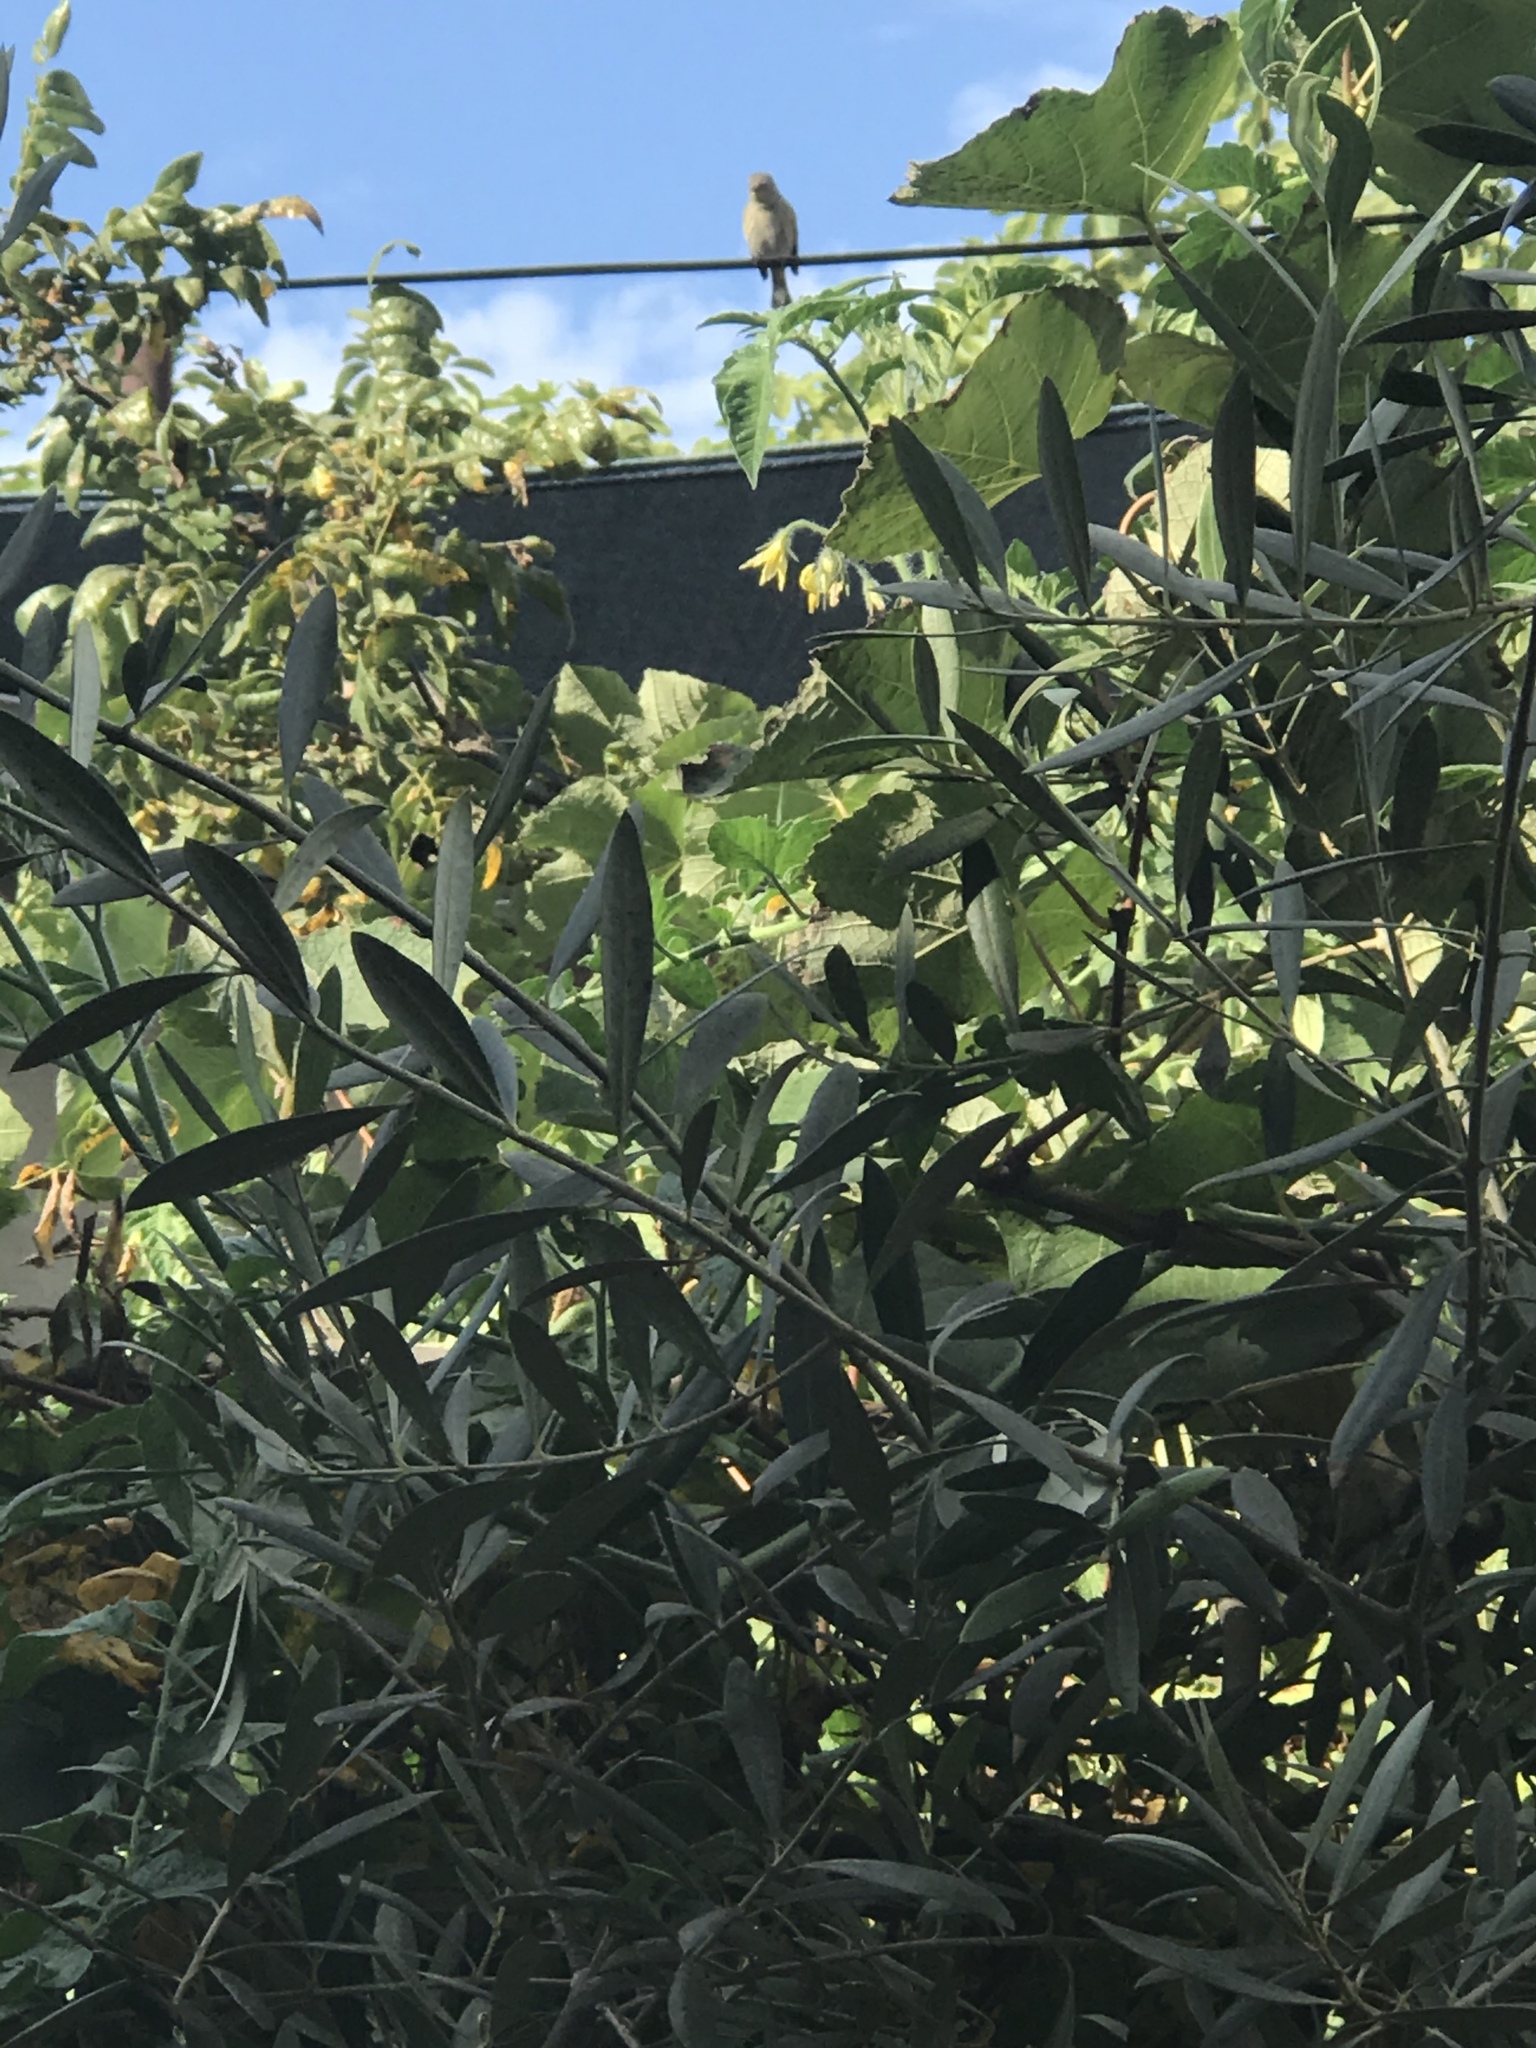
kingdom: Animalia
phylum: Chordata
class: Aves
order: Passeriformes
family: Parulidae
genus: Setophaga
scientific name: Setophaga auduboni
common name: Audubon's warbler
